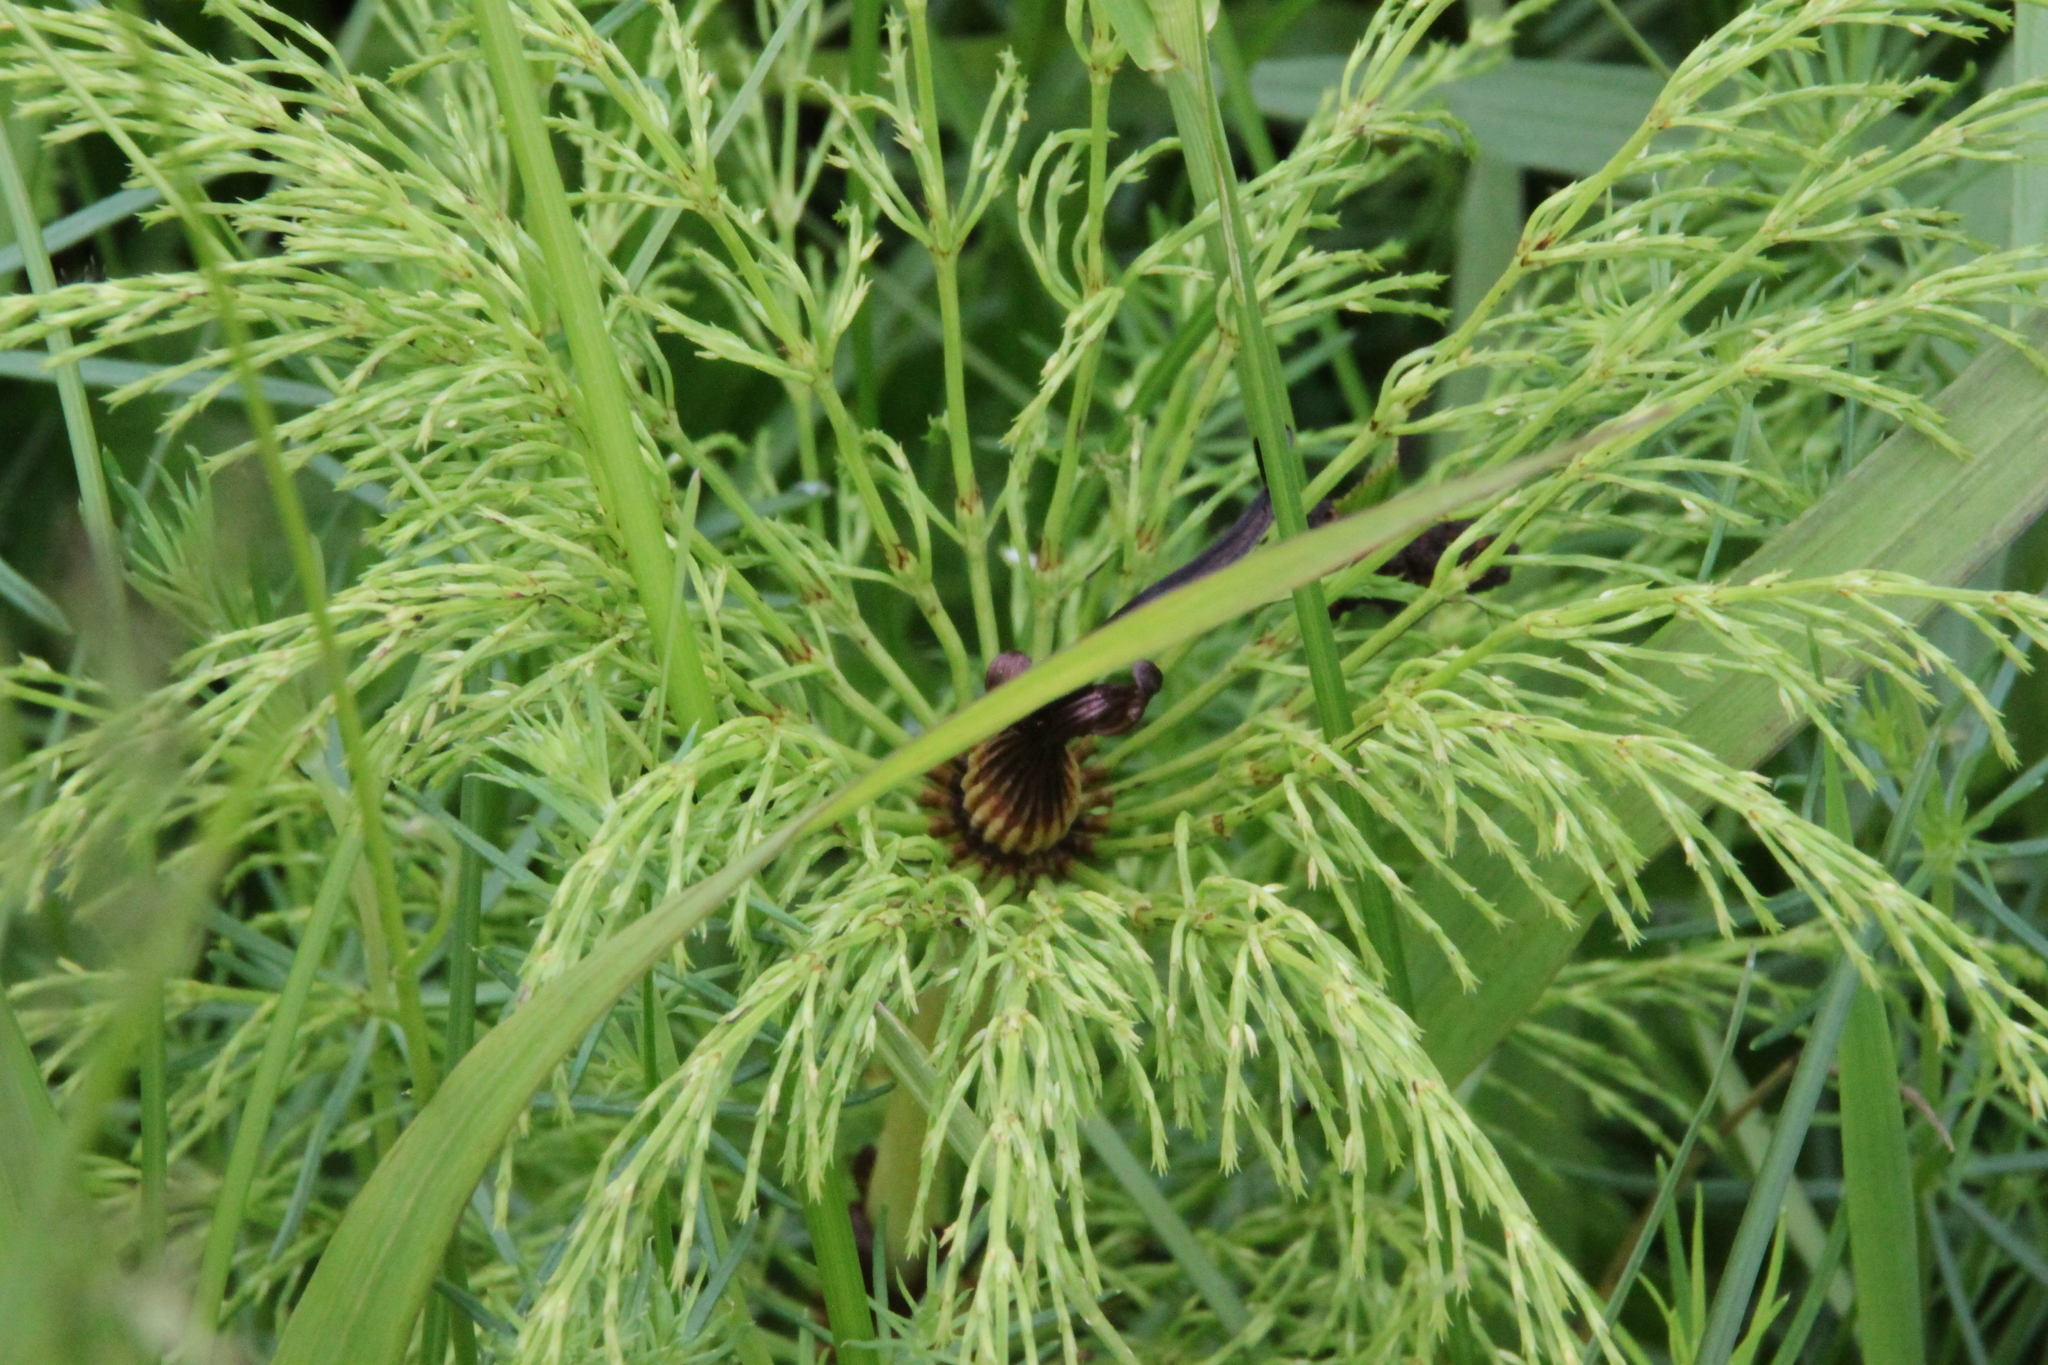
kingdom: Plantae
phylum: Tracheophyta
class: Polypodiopsida
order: Equisetales
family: Equisetaceae
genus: Equisetum
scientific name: Equisetum sylvaticum
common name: Wood horsetail
